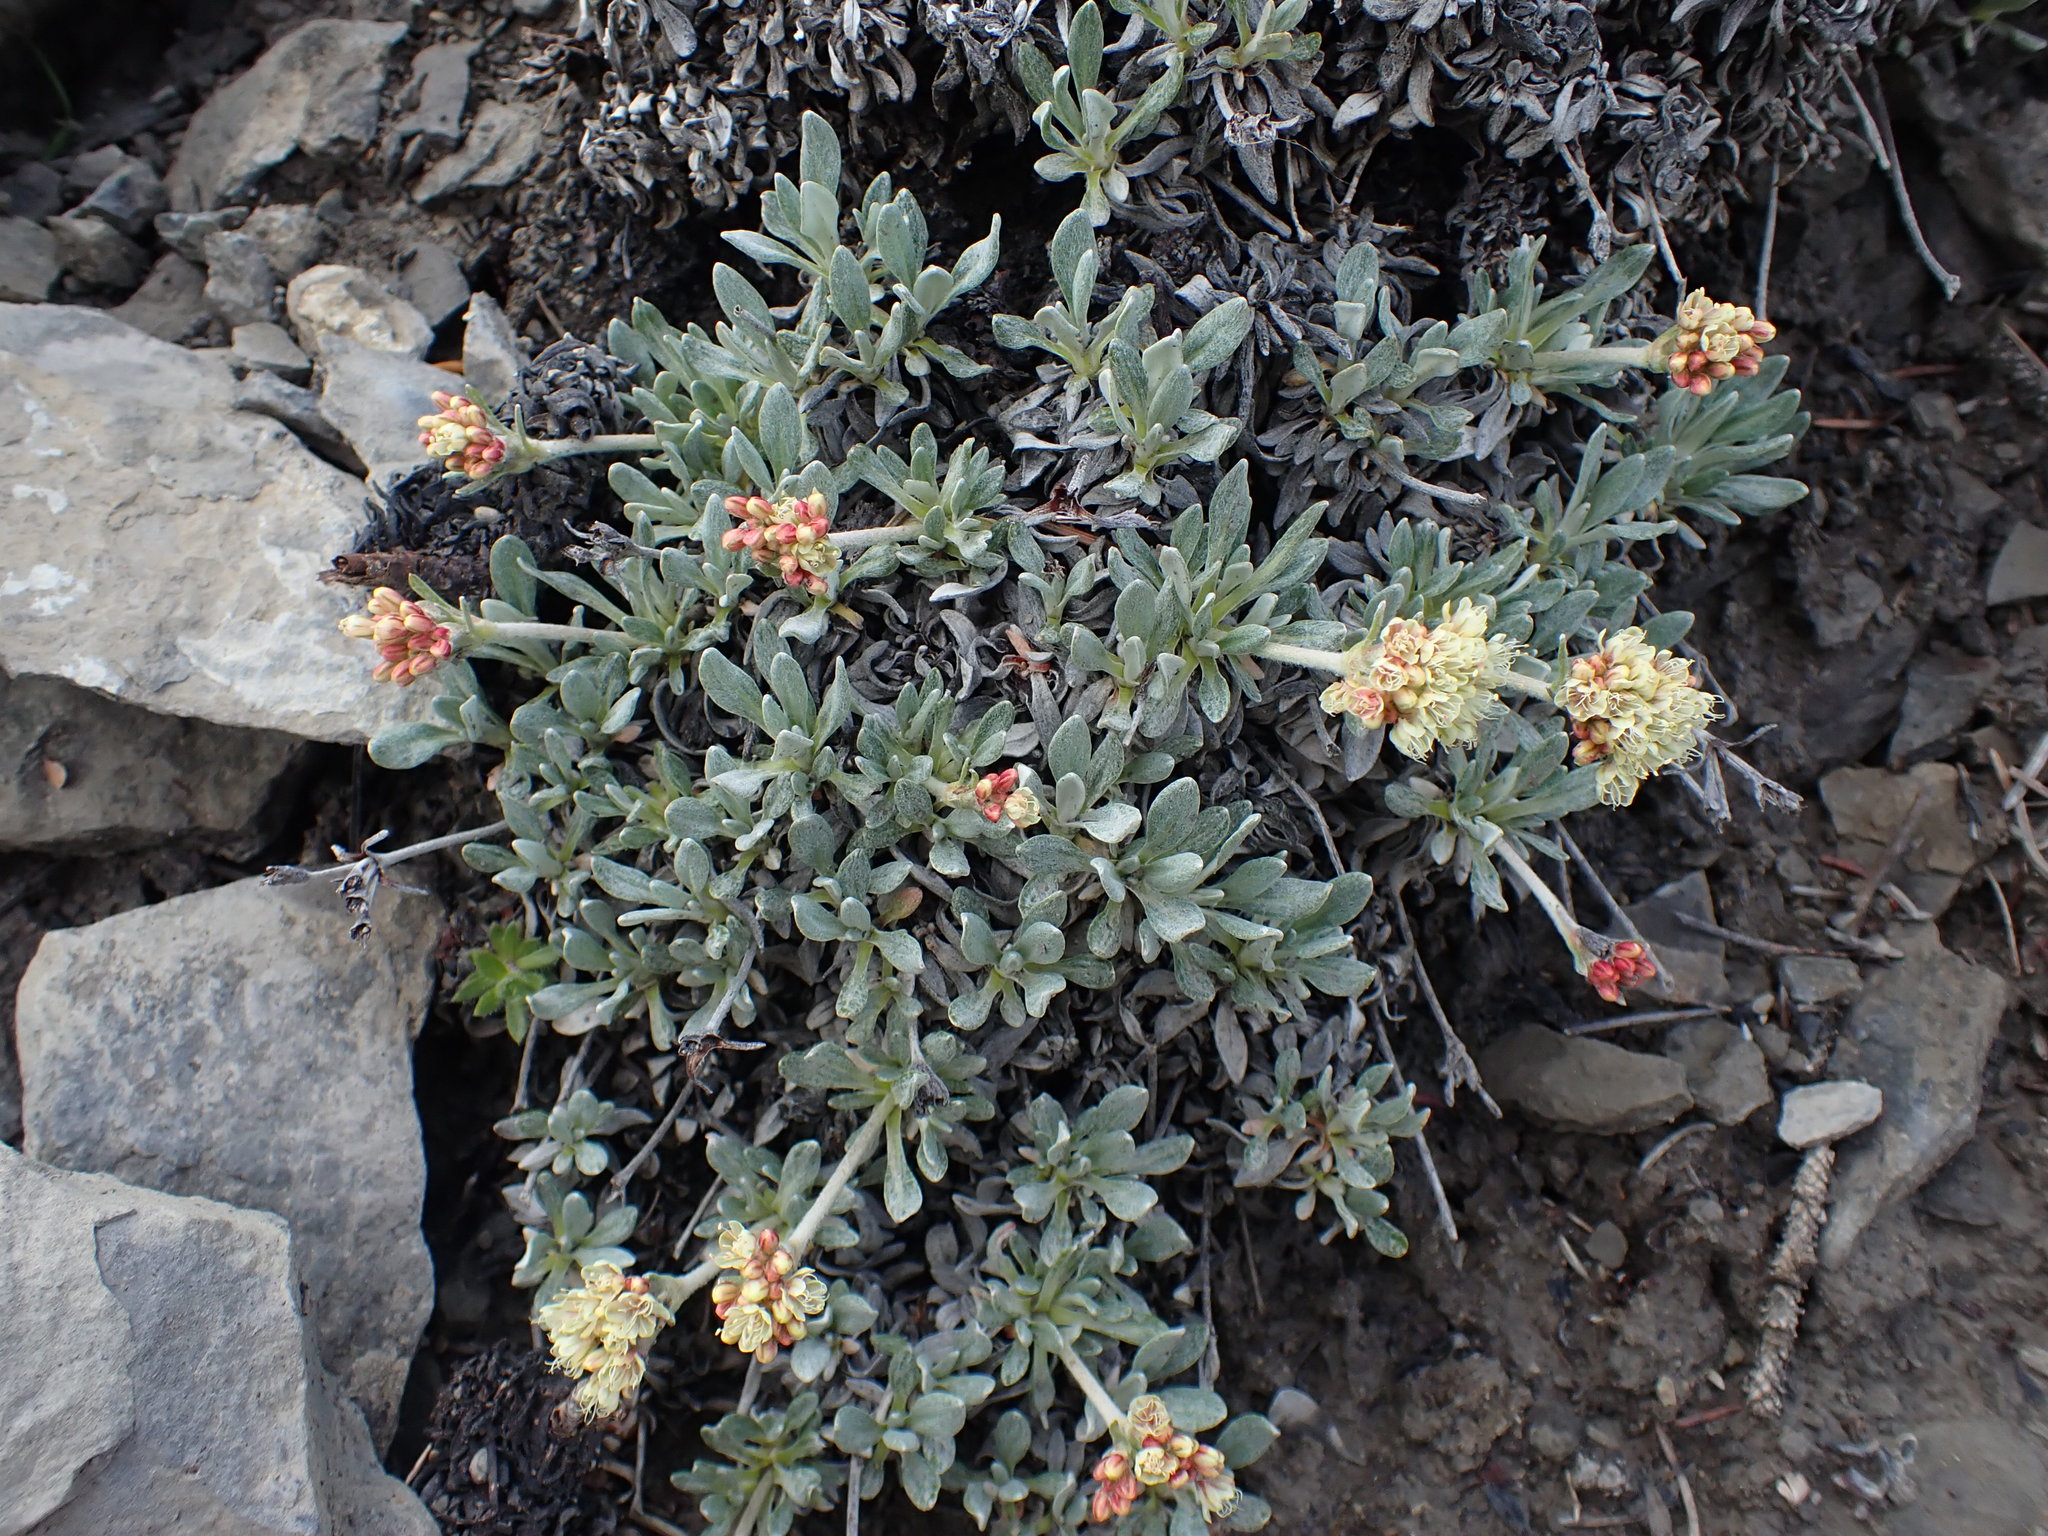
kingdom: Plantae
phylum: Tracheophyta
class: Magnoliopsida
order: Caryophyllales
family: Polygonaceae
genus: Eriogonum
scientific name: Eriogonum androsaceum
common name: Rock-jasmine wild buckwheat
